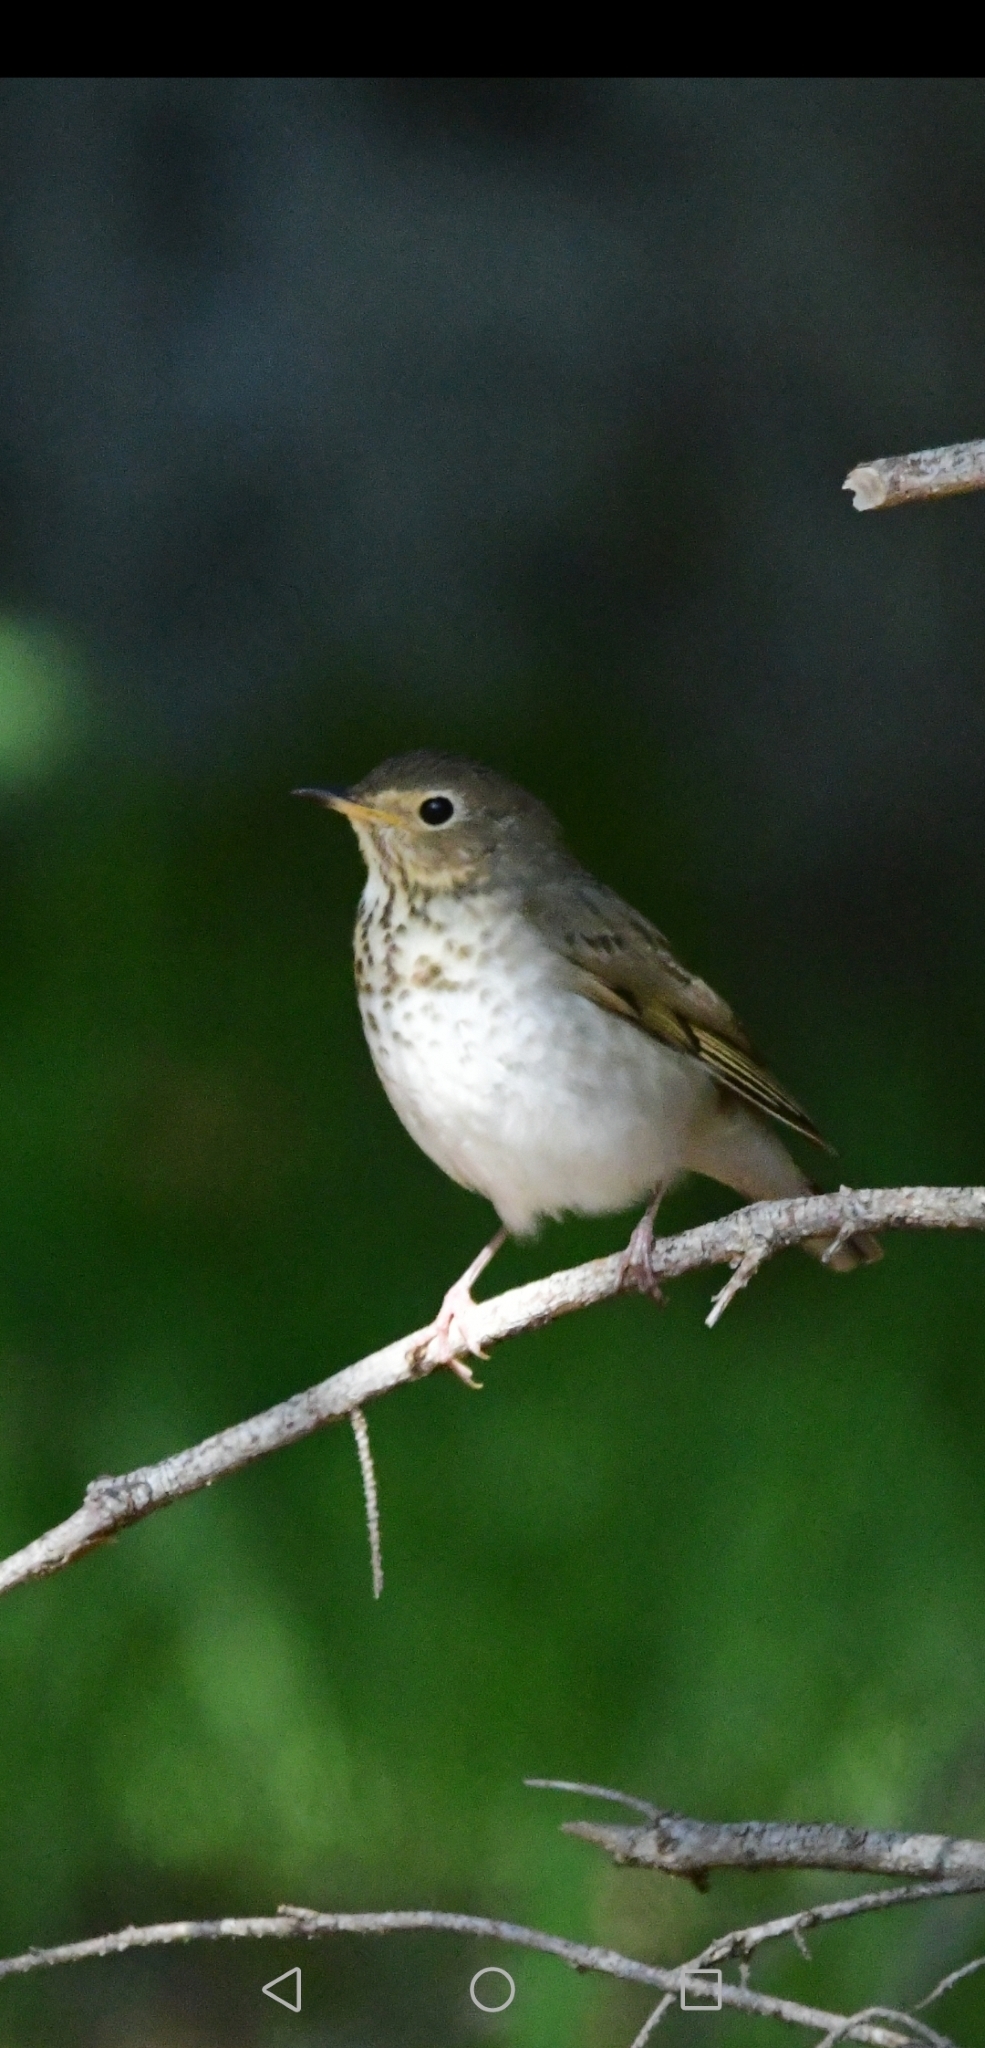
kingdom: Animalia
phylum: Chordata
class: Aves
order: Passeriformes
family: Turdidae
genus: Catharus
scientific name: Catharus ustulatus
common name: Swainson's thrush
